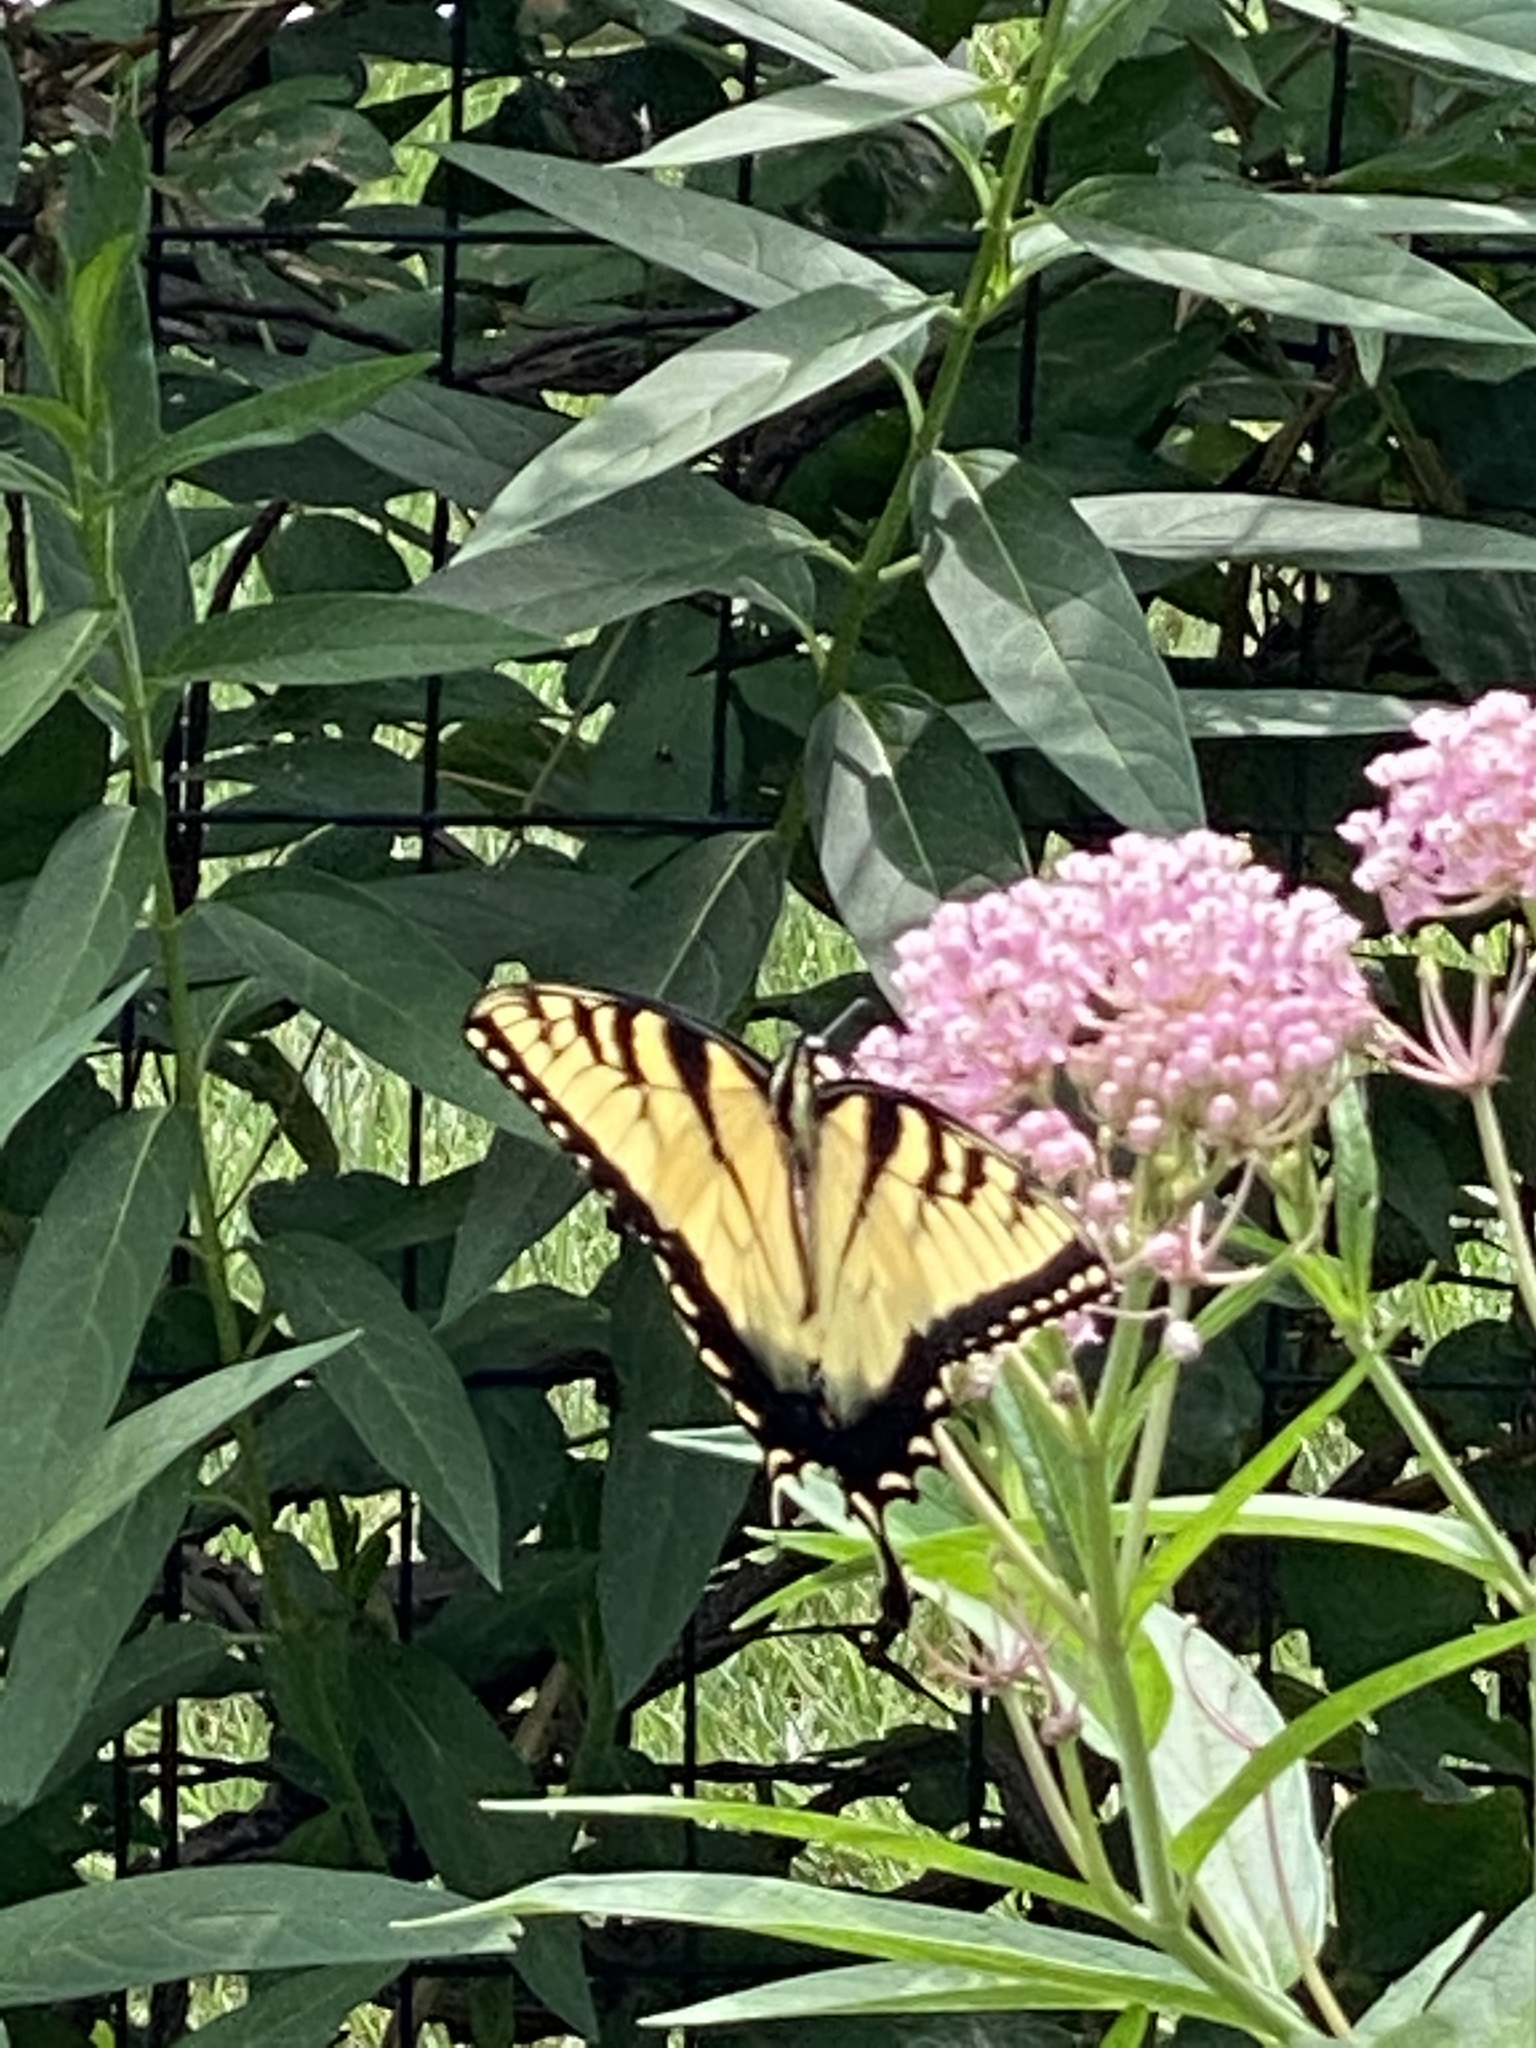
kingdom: Animalia
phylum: Arthropoda
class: Insecta
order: Lepidoptera
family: Papilionidae
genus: Papilio
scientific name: Papilio glaucus
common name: Tiger swallowtail
